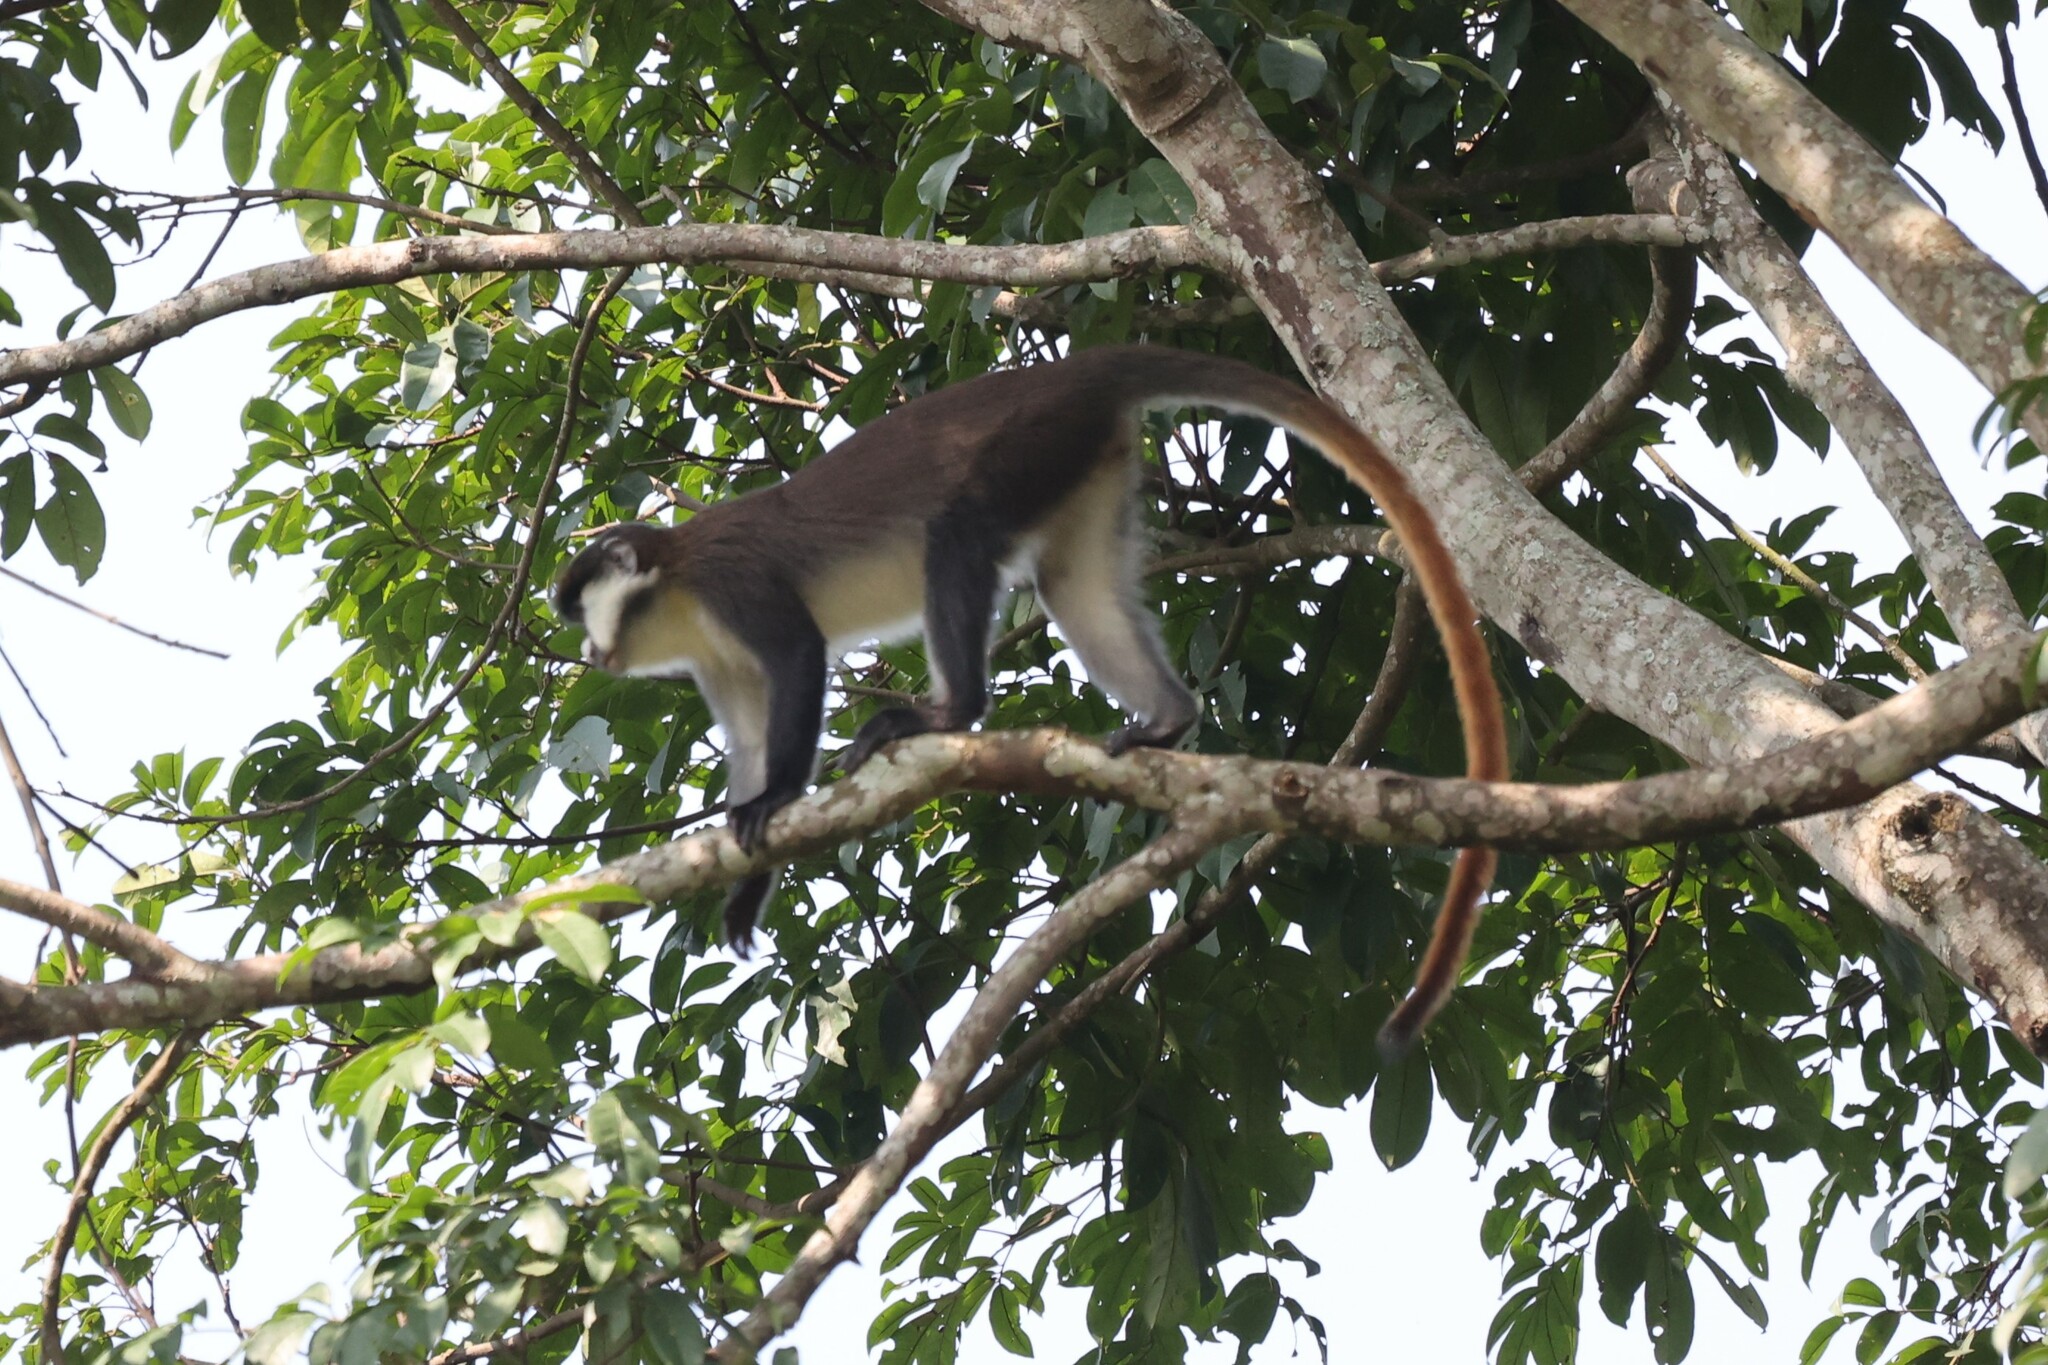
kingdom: Animalia
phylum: Chordata
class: Mammalia
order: Primates
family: Cercopithecidae
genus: Cercopithecus
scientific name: Cercopithecus ascanius
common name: Red-tailed monkey
